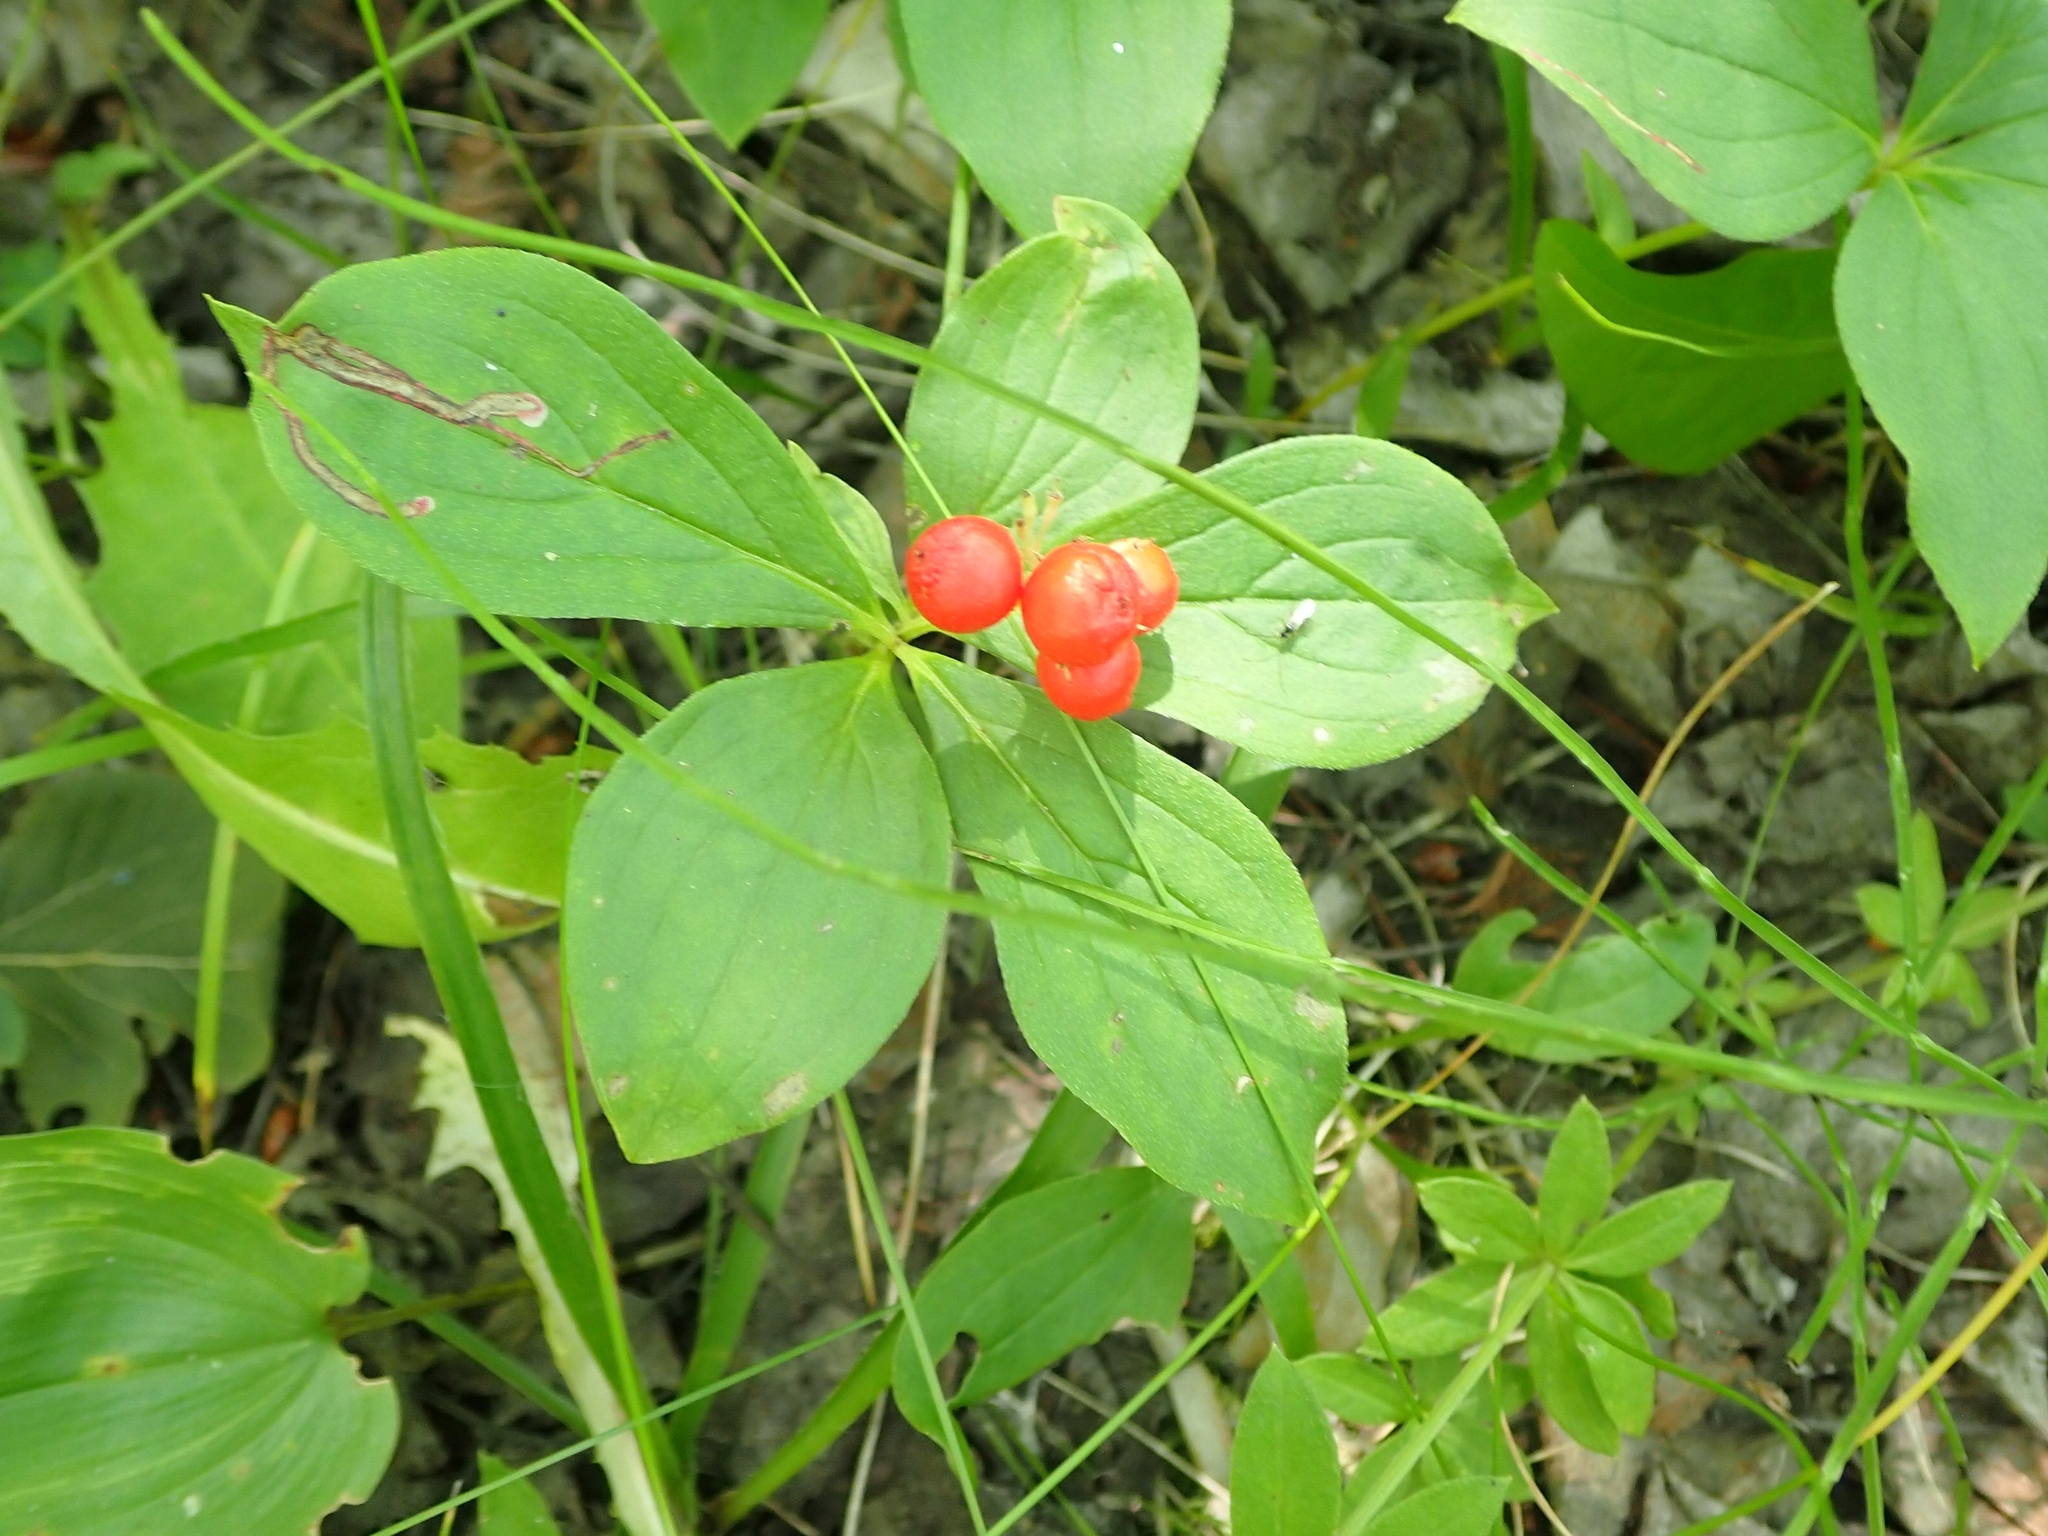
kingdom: Plantae
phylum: Tracheophyta
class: Magnoliopsida
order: Cornales
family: Cornaceae
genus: Cornus
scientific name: Cornus canadensis
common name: Creeping dogwood
